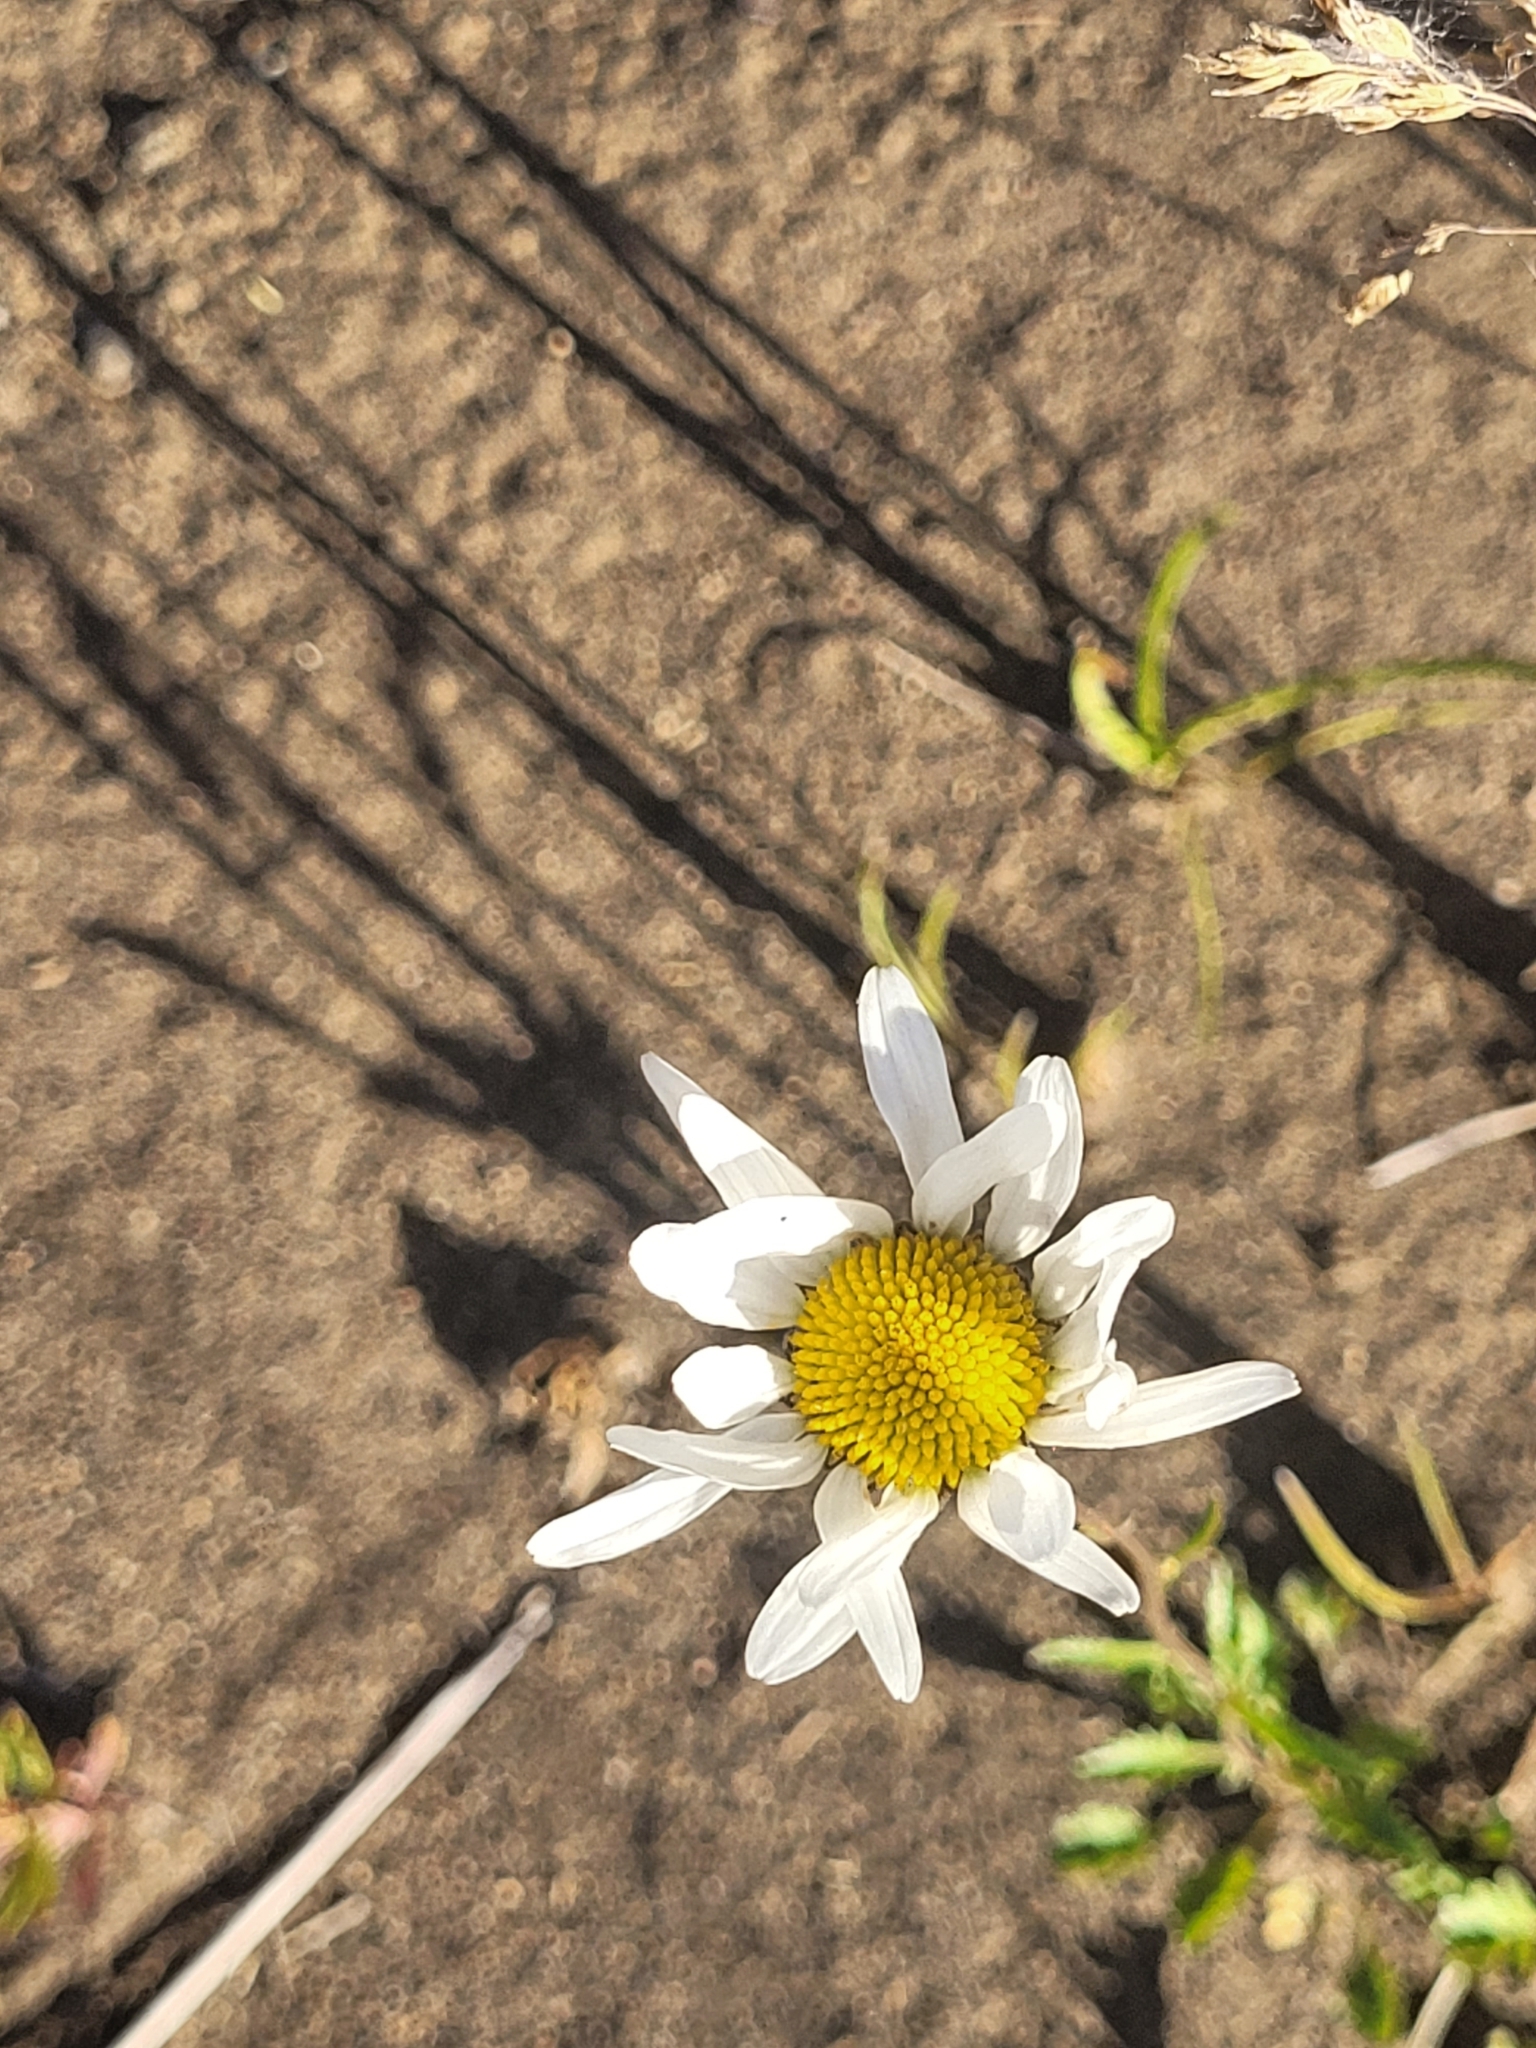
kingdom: Plantae
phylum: Tracheophyta
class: Magnoliopsida
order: Asterales
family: Asteraceae
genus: Leucanthemum
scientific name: Leucanthemum vulgare
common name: Oxeye daisy
